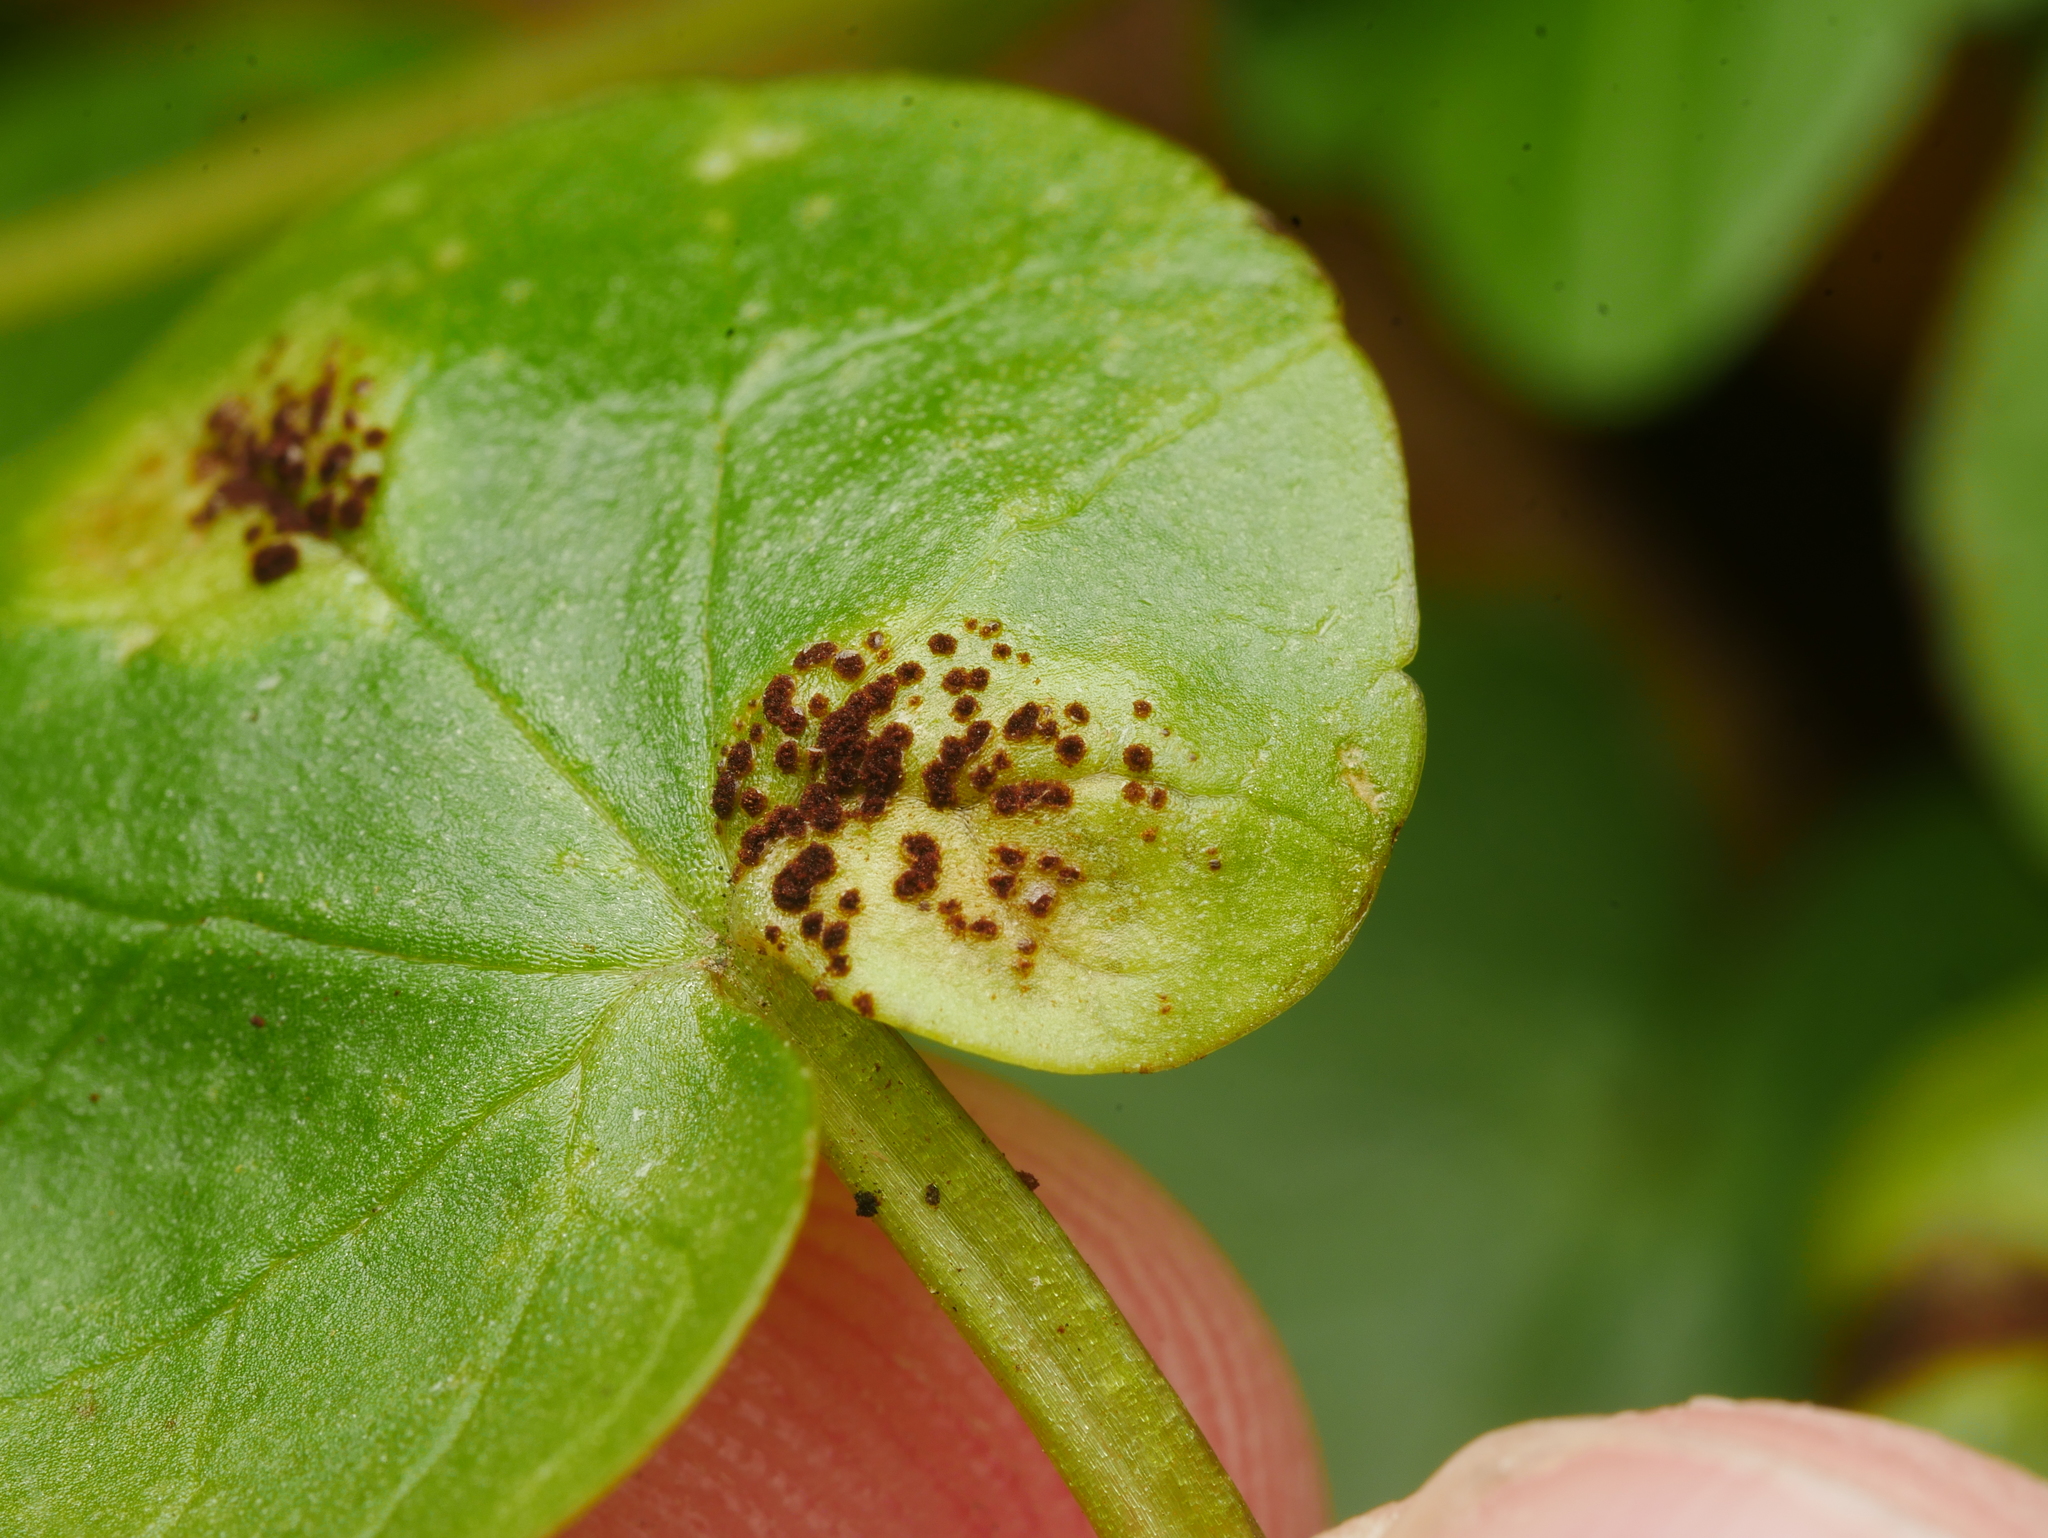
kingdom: Fungi
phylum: Basidiomycota
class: Pucciniomycetes
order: Pucciniales
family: Pucciniaceae
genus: Uromyces
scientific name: Uromyces ficariae
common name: Bitter chocolate rust
